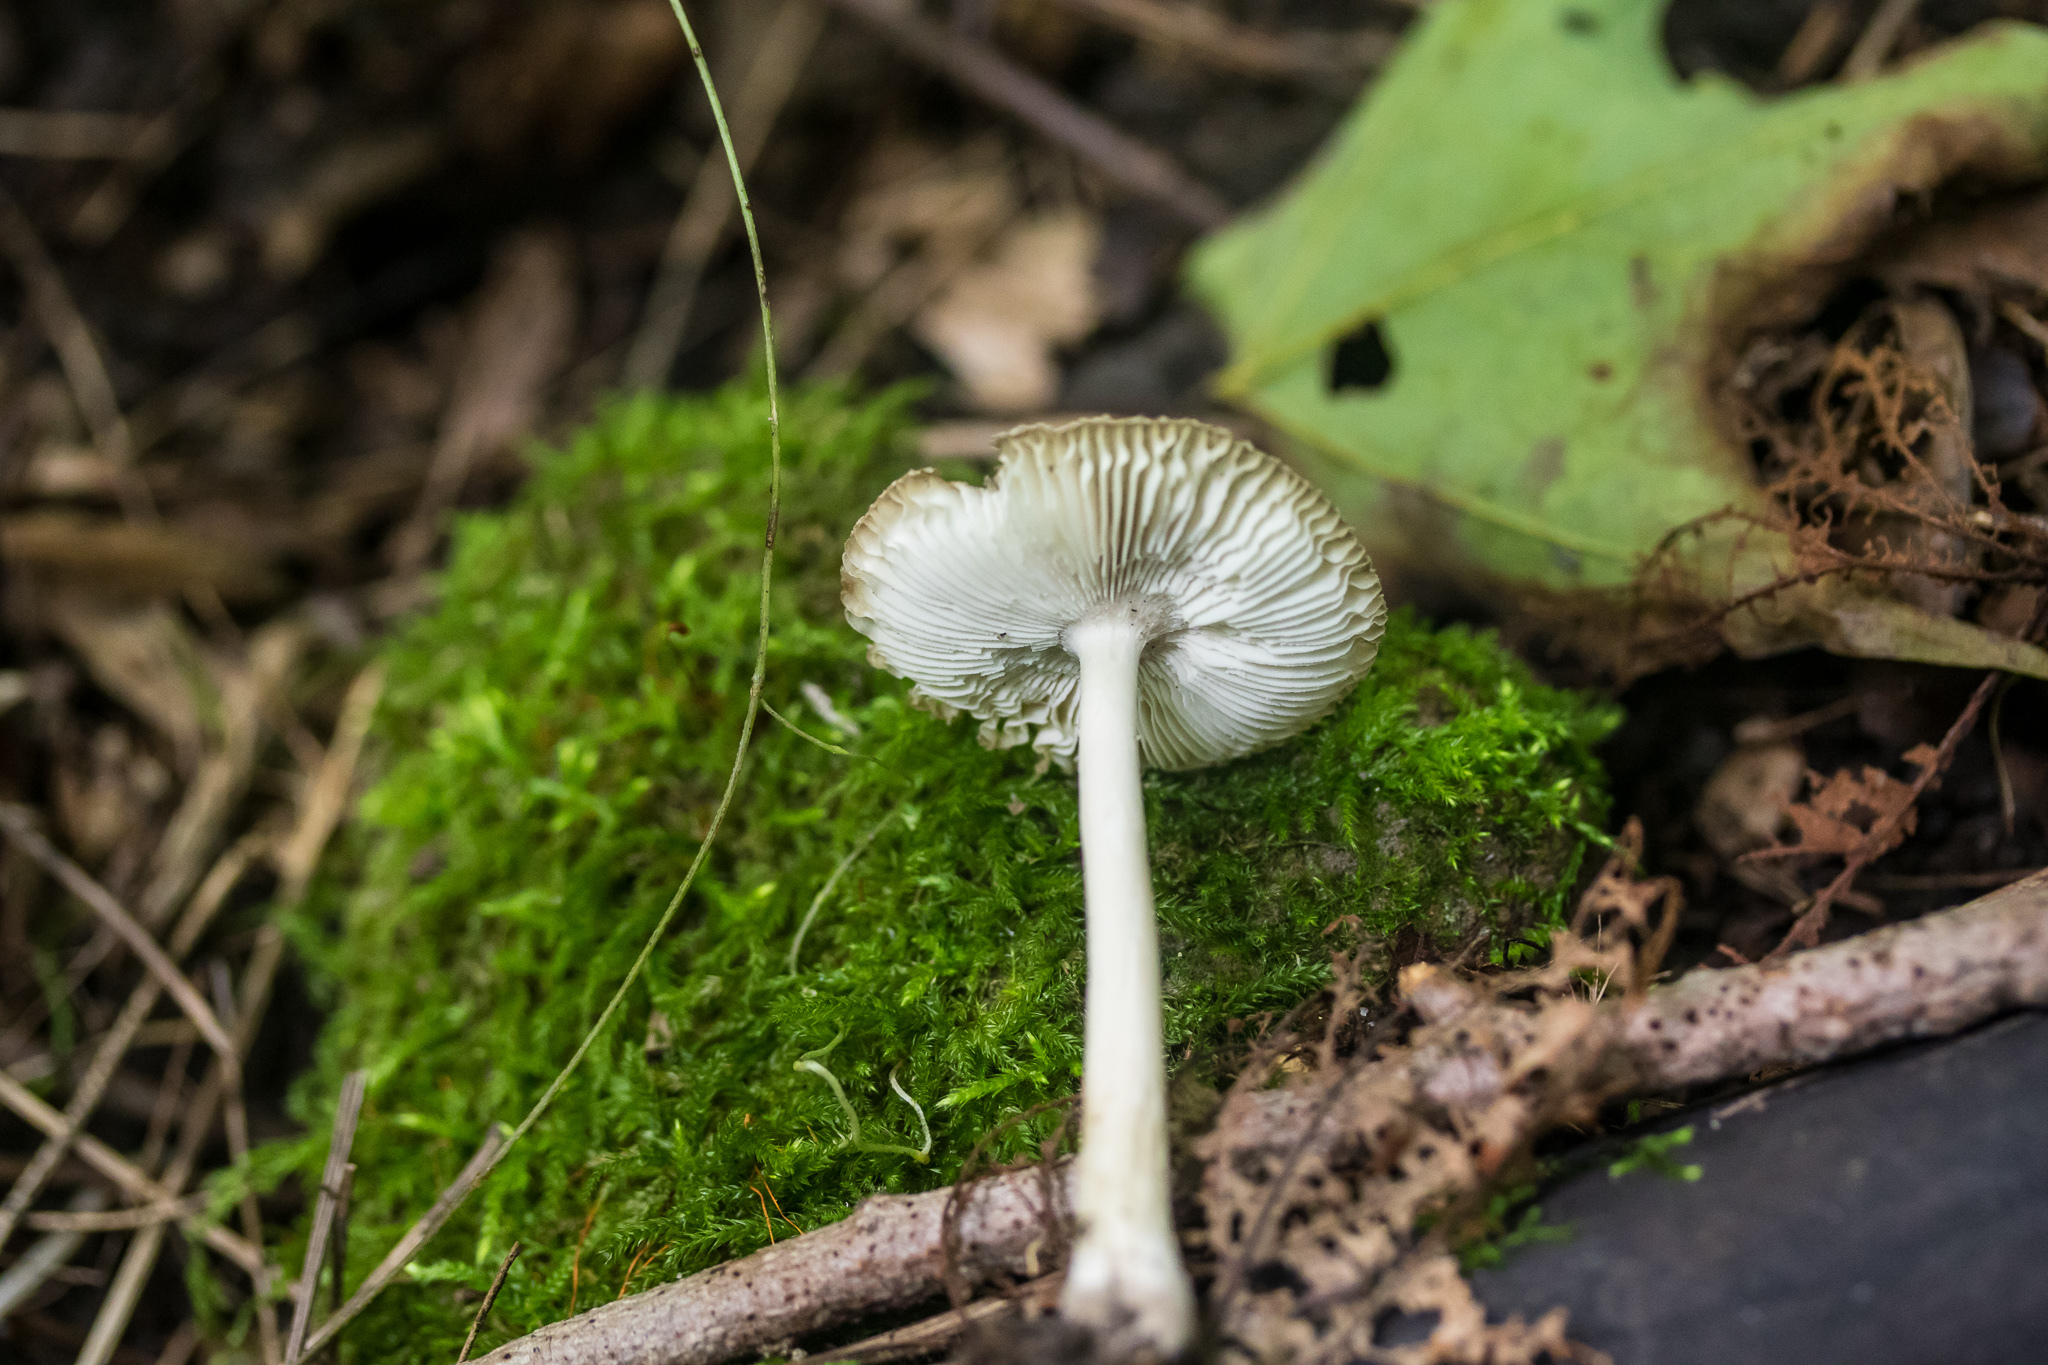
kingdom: Fungi
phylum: Basidiomycota
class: Agaricomycetes
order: Agaricales
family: Amanitaceae
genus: Amanita
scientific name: Amanita vaginata
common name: Grisette
